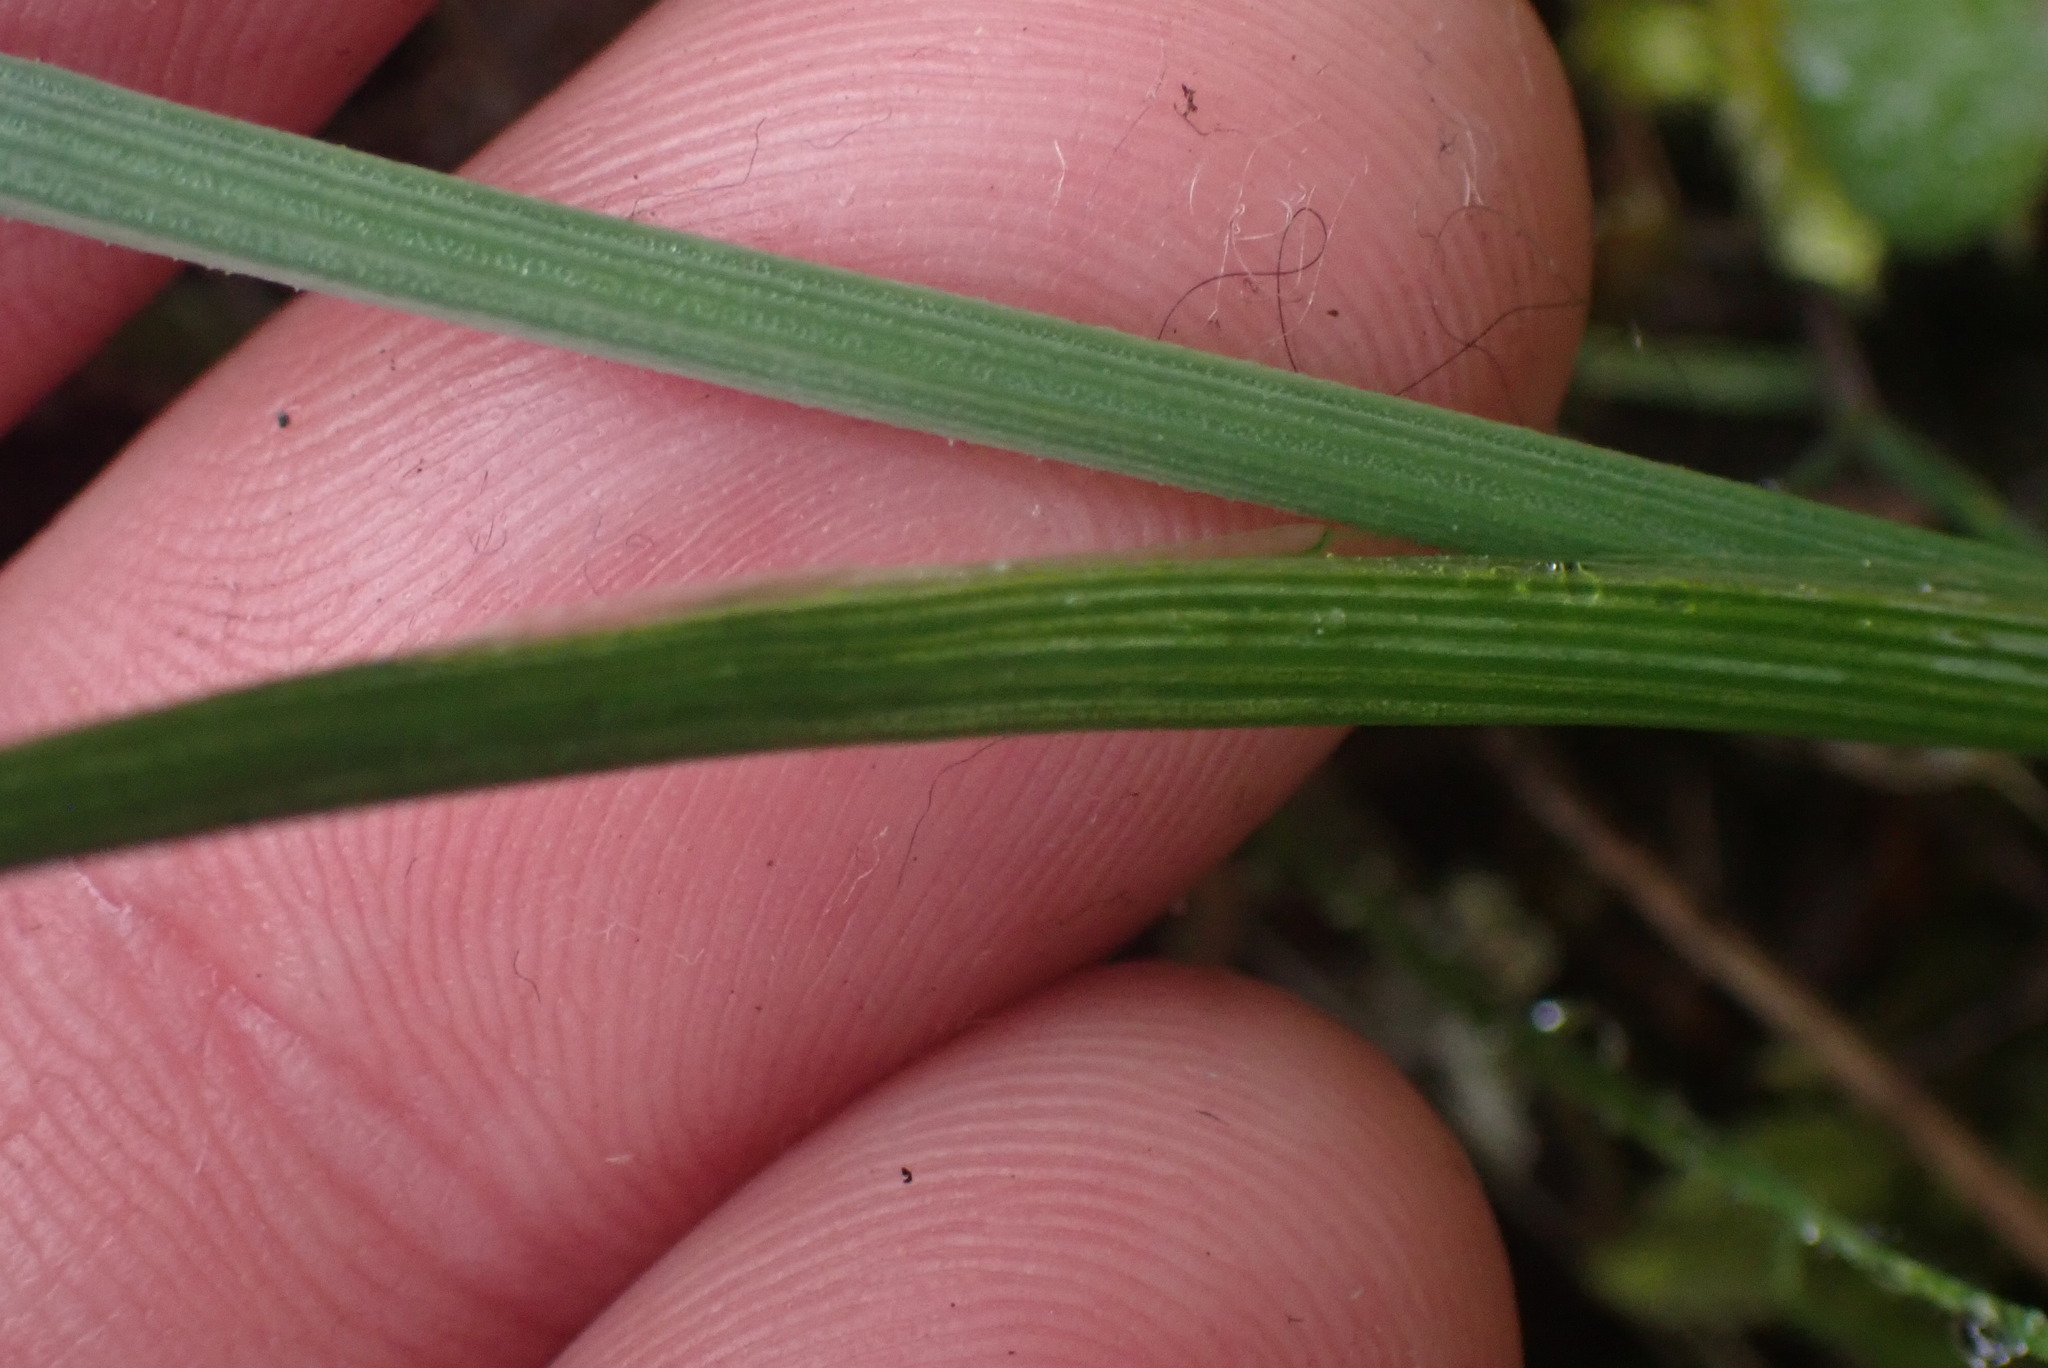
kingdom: Plantae
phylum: Tracheophyta
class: Liliopsida
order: Asparagales
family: Iridaceae
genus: Olsynium
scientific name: Olsynium douglasii
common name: Douglas' grasswidow
